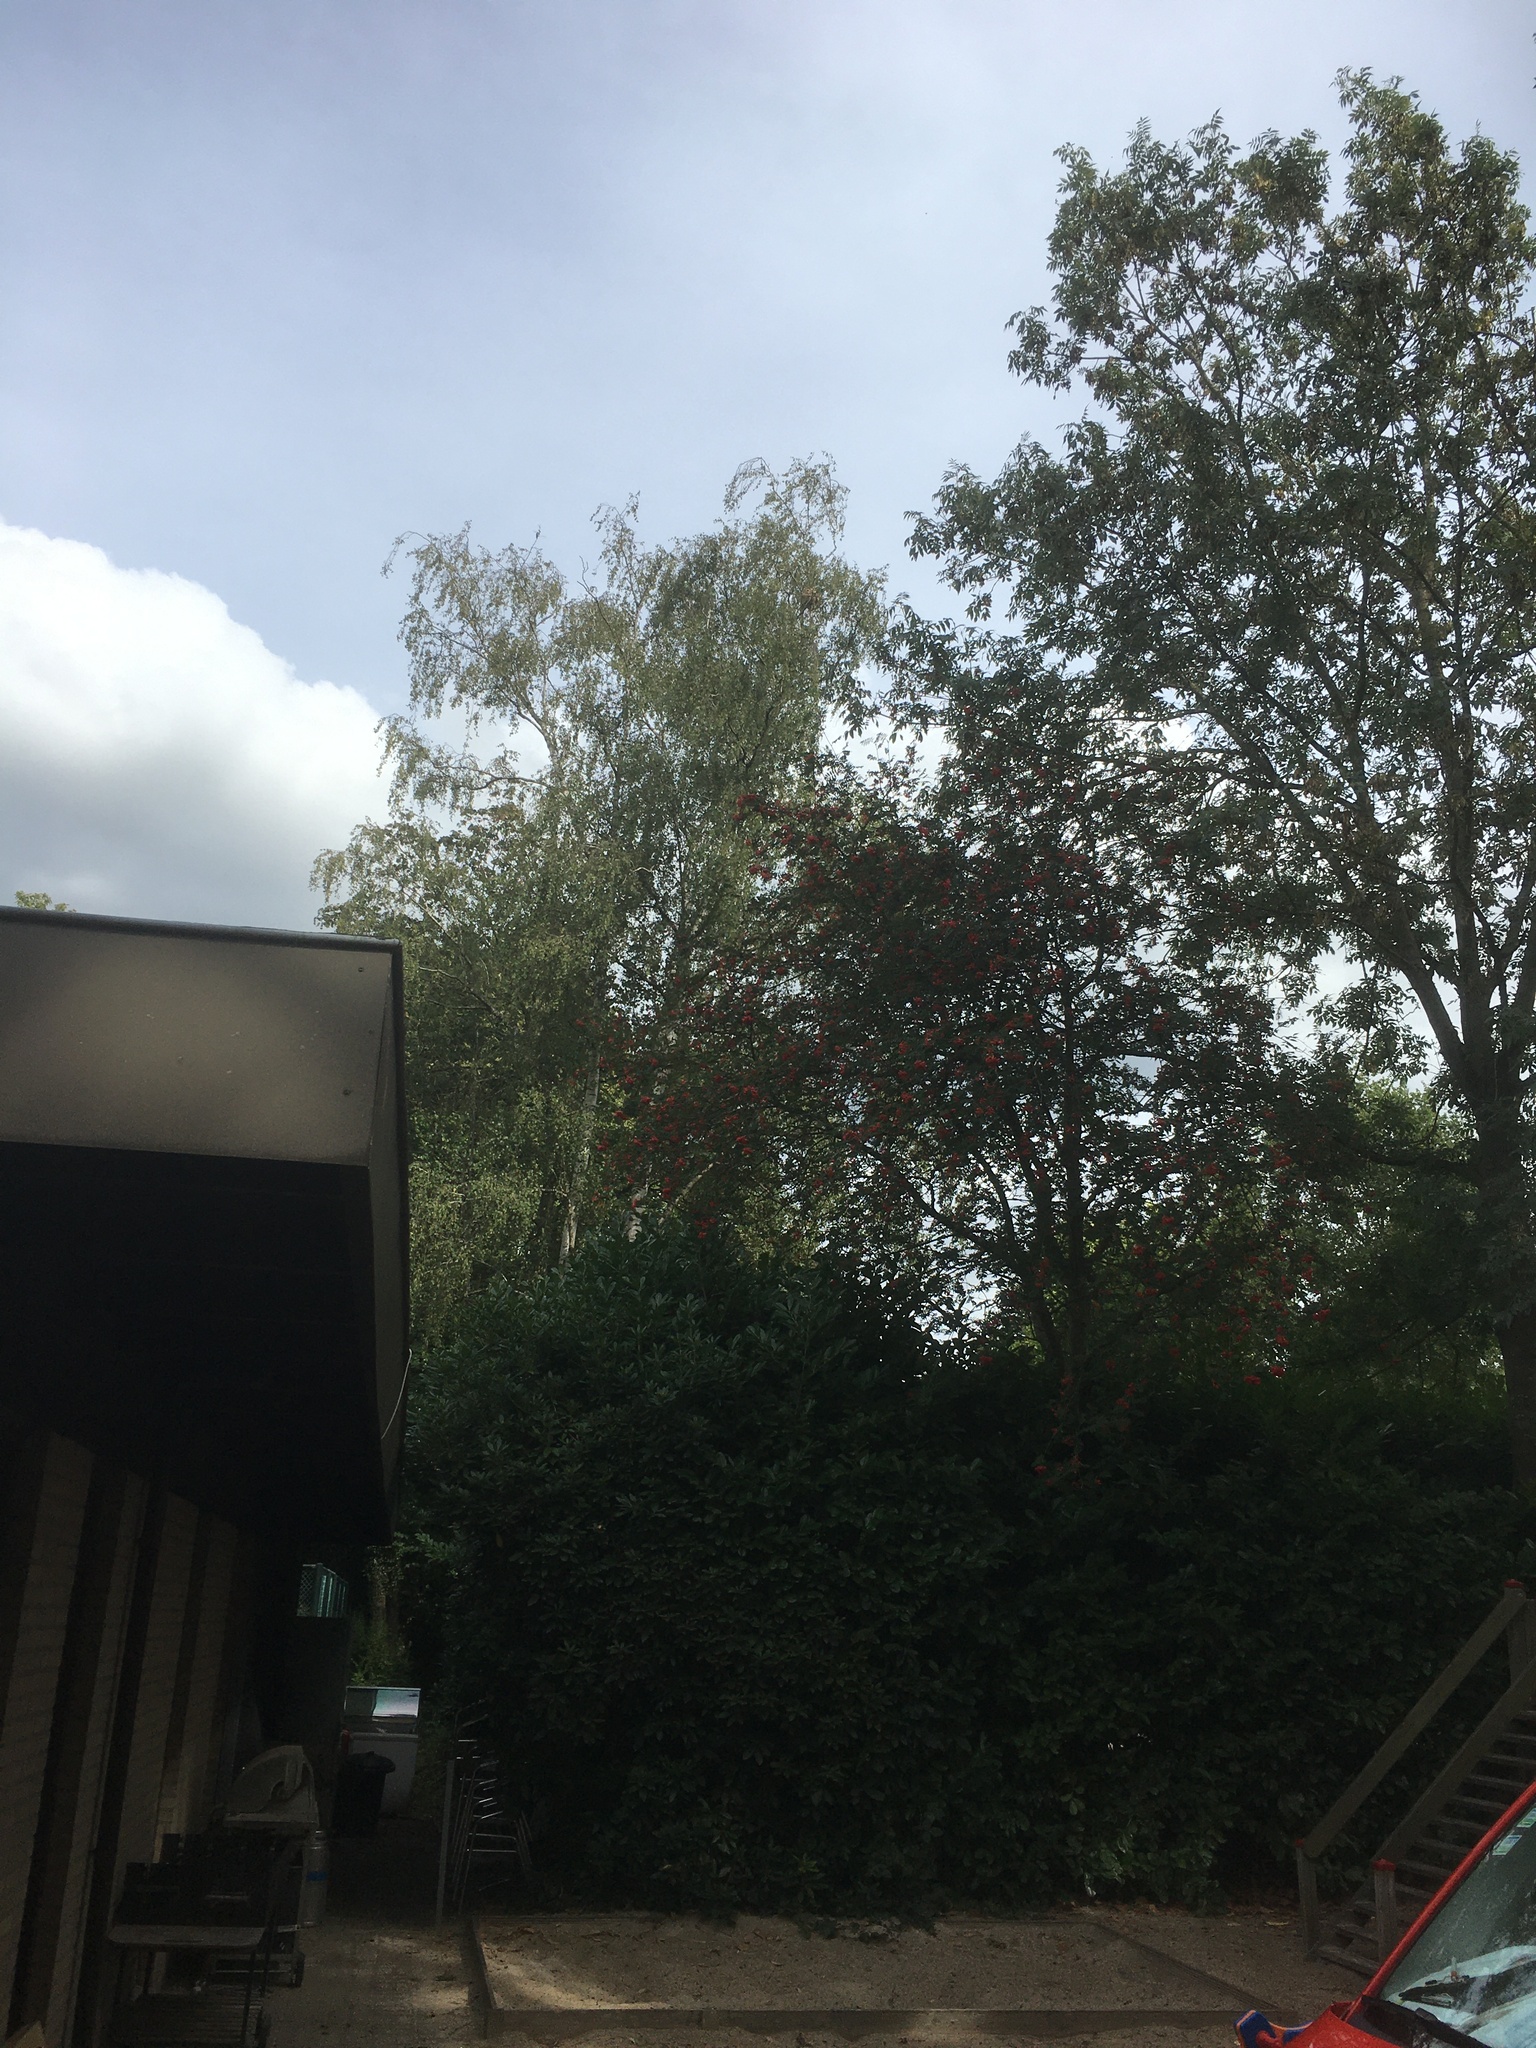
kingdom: Animalia
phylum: Arthropoda
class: Insecta
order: Hymenoptera
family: Vespidae
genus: Vespa
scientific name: Vespa velutina
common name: Asian hornet
